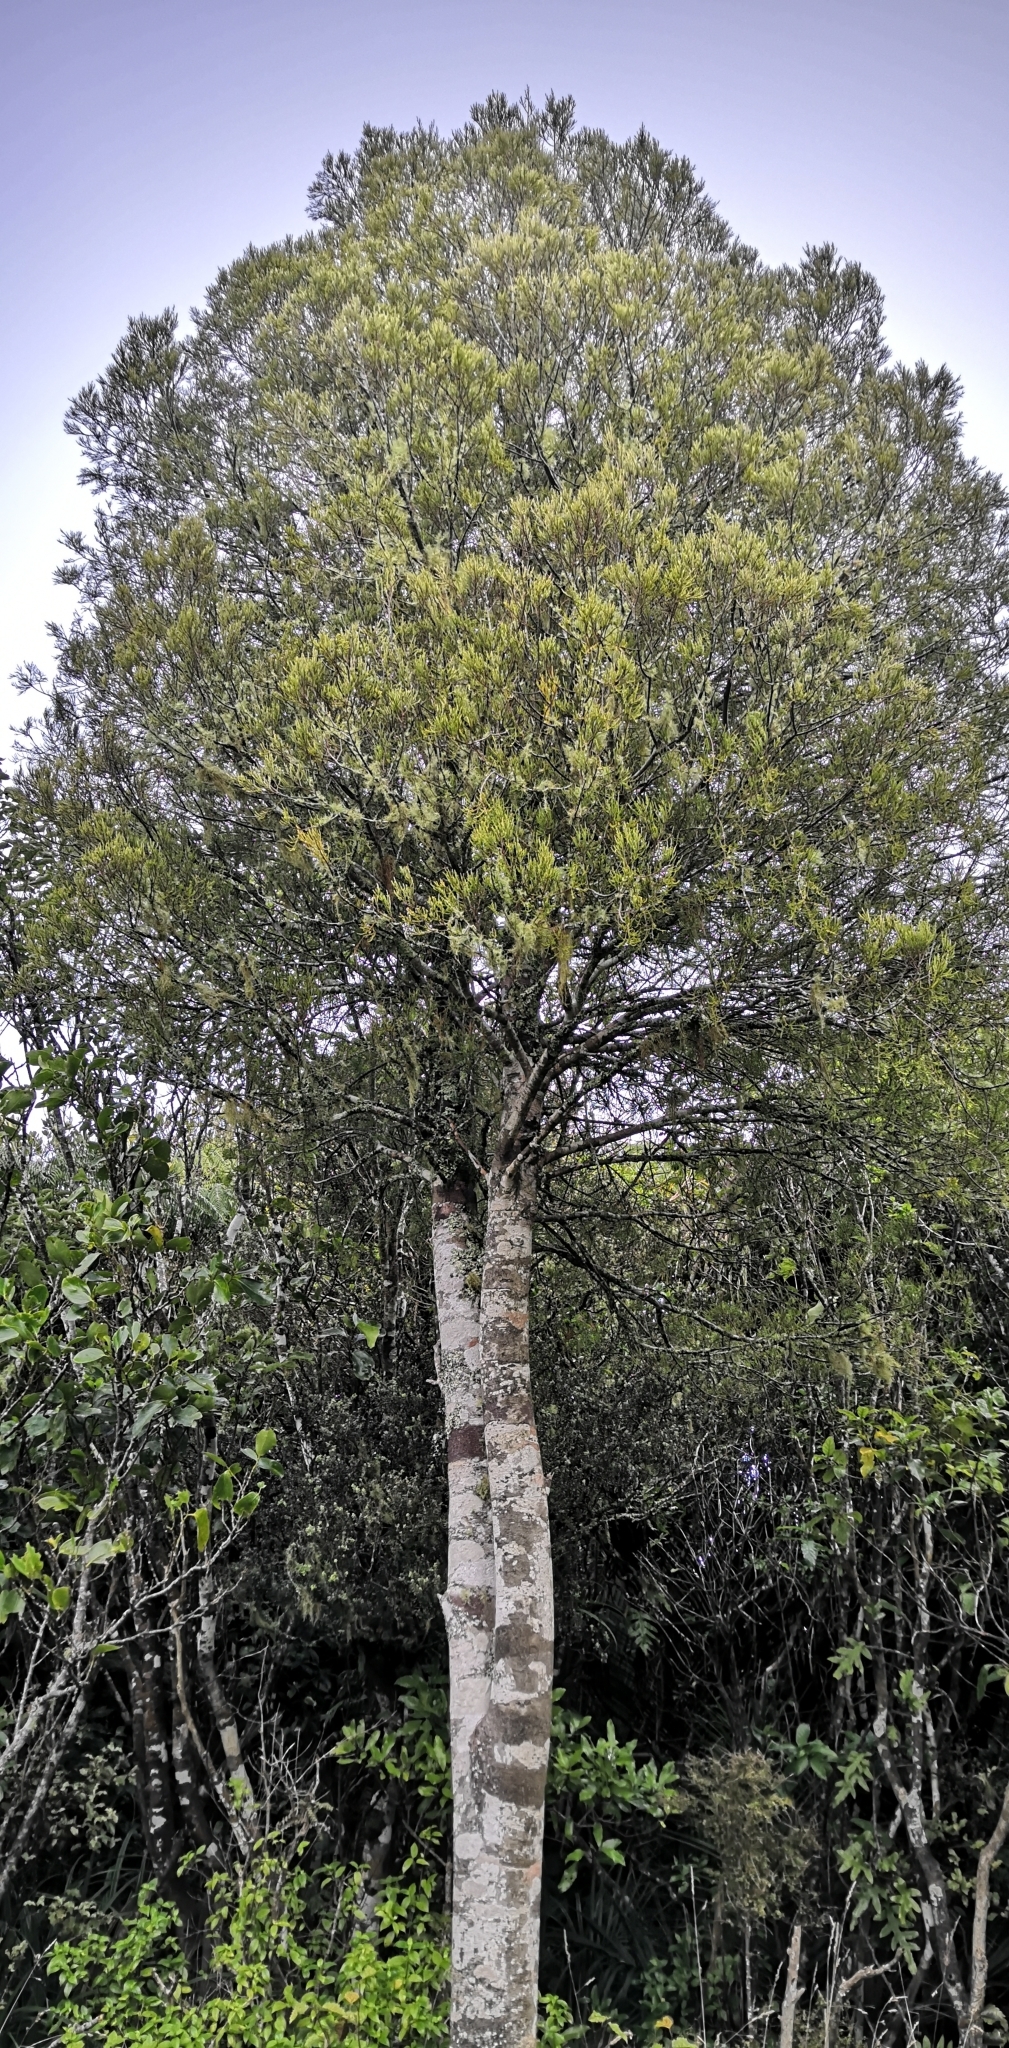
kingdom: Plantae
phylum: Tracheophyta
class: Pinopsida
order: Pinales
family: Podocarpaceae
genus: Dacrycarpus
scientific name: Dacrycarpus dacrydioides
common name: White pine
